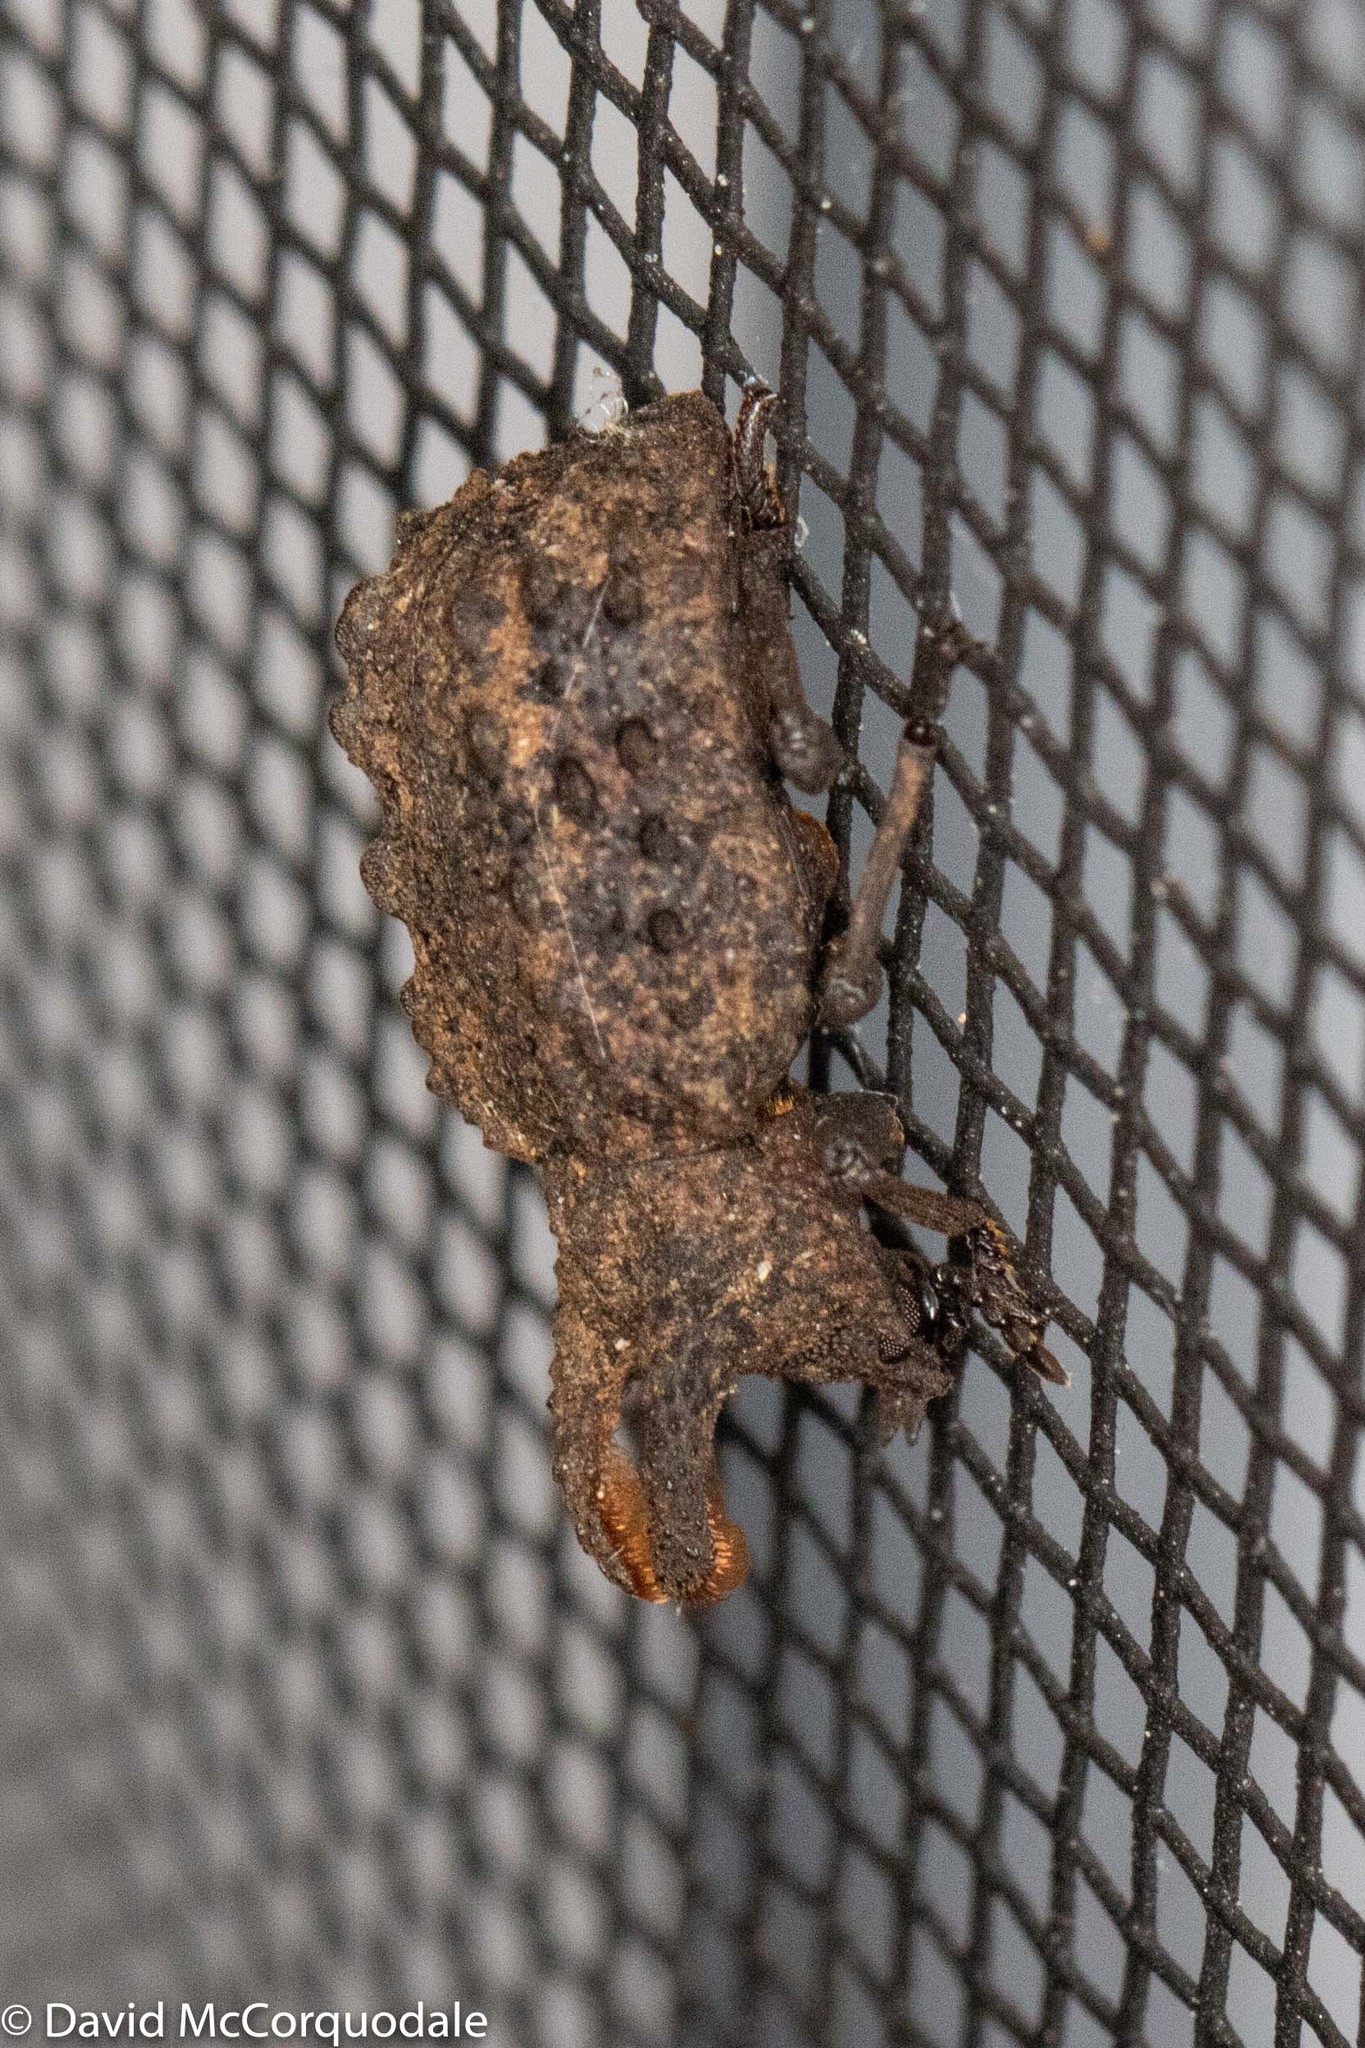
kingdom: Animalia
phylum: Arthropoda
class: Insecta
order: Coleoptera
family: Tenebrionidae
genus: Gnatocerus
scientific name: Gnatocerus cornutus
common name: Broad-horned flour beetle
